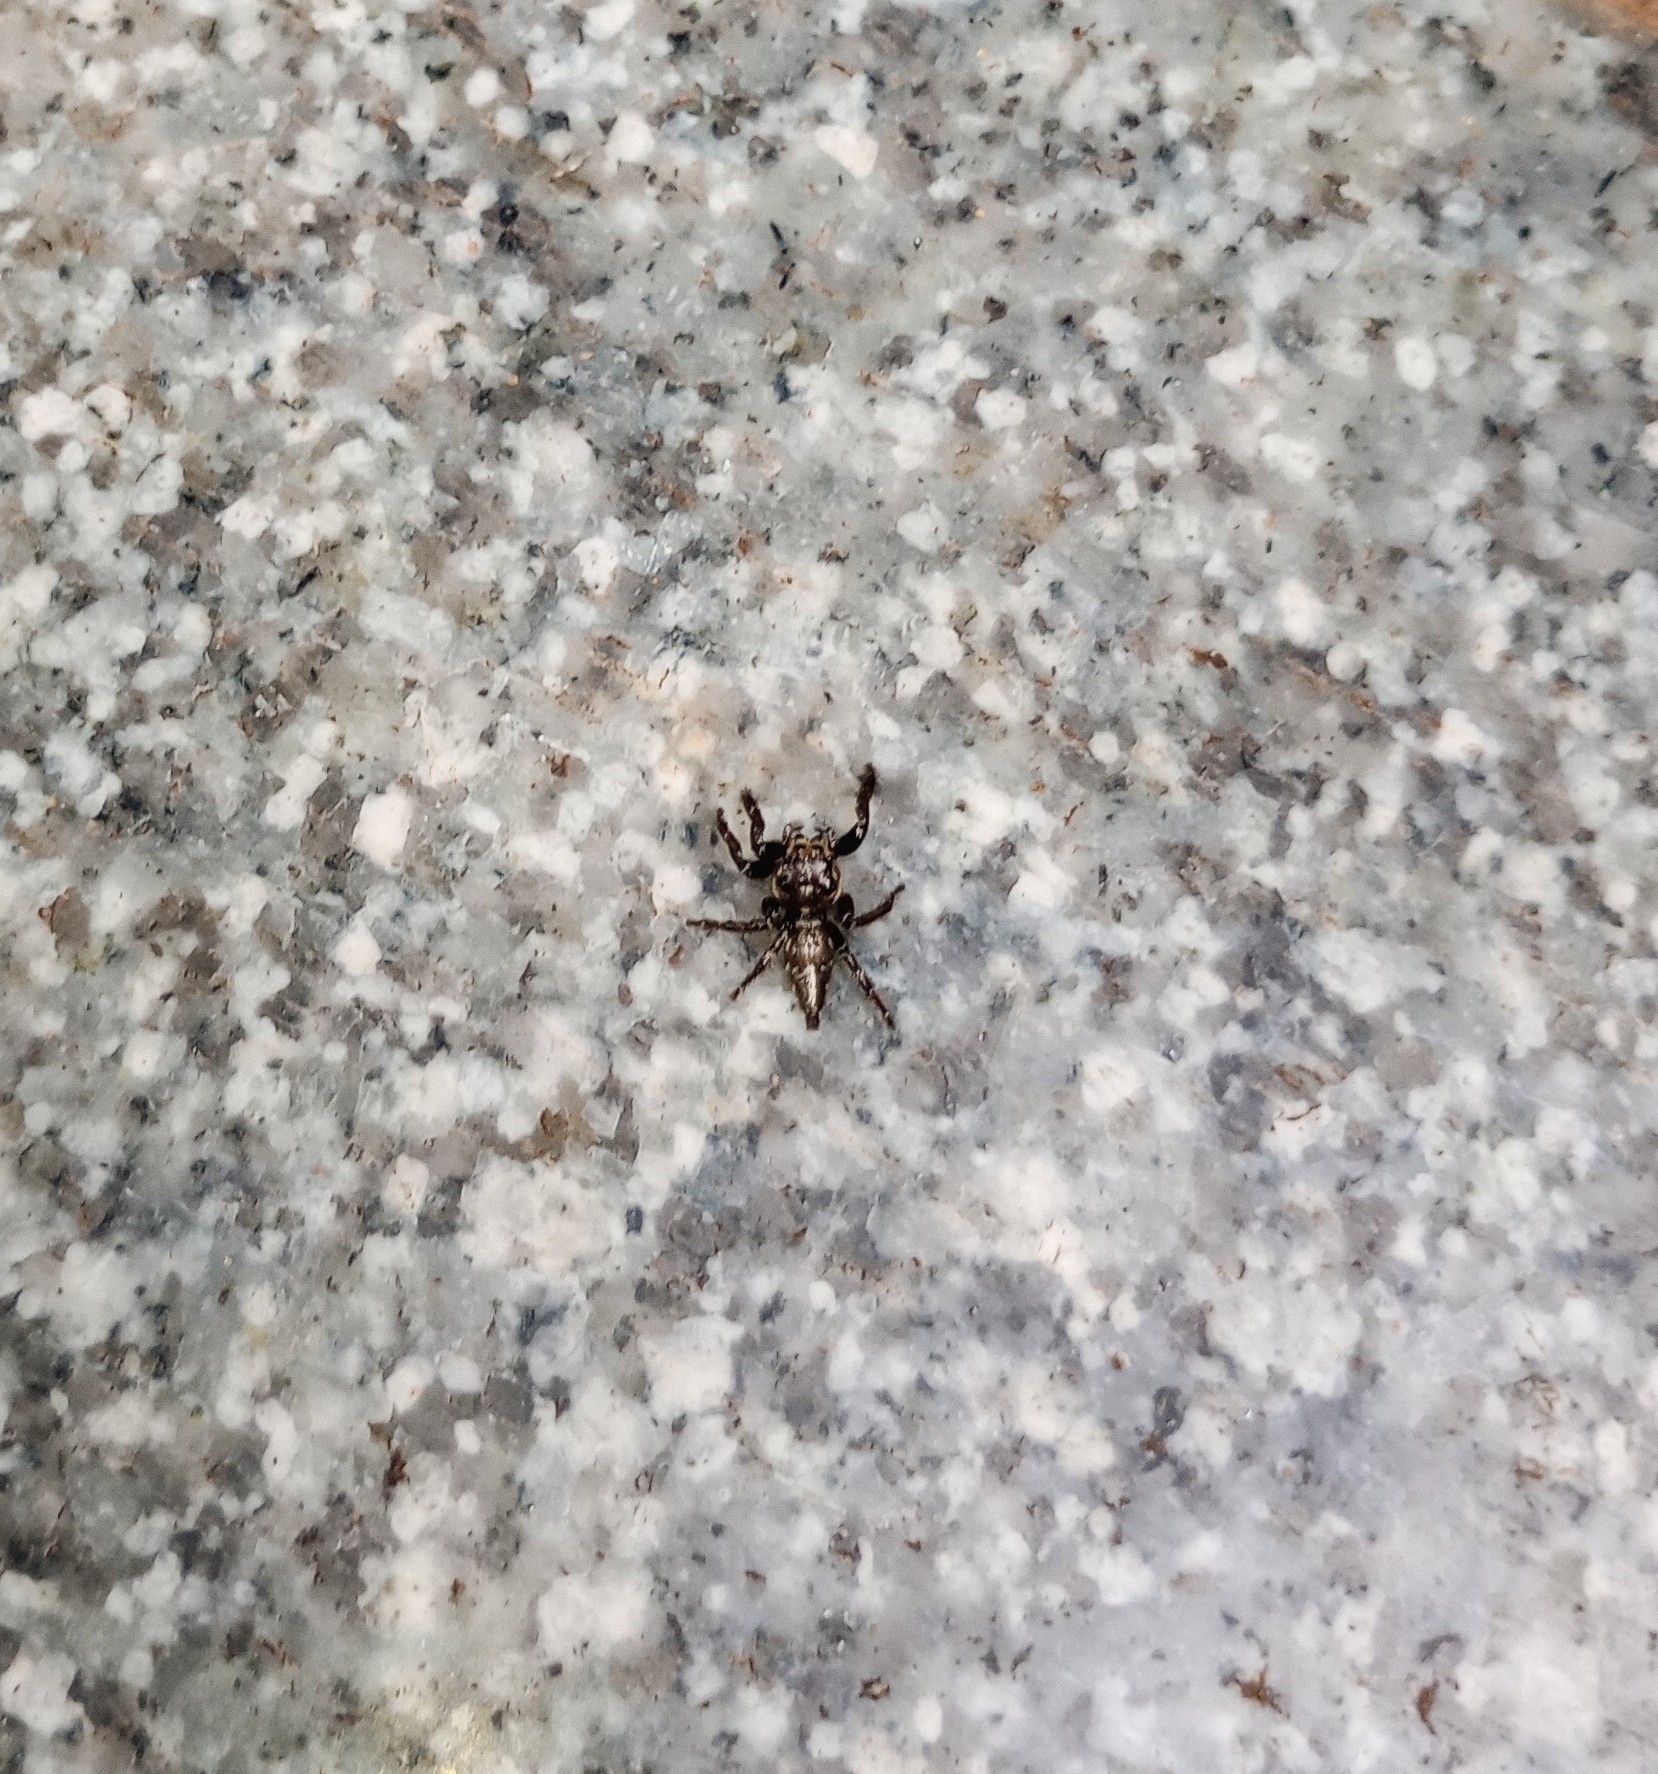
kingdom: Animalia
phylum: Arthropoda
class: Arachnida
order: Araneae
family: Salticidae
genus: Hyllus
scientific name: Hyllus semicupreus
